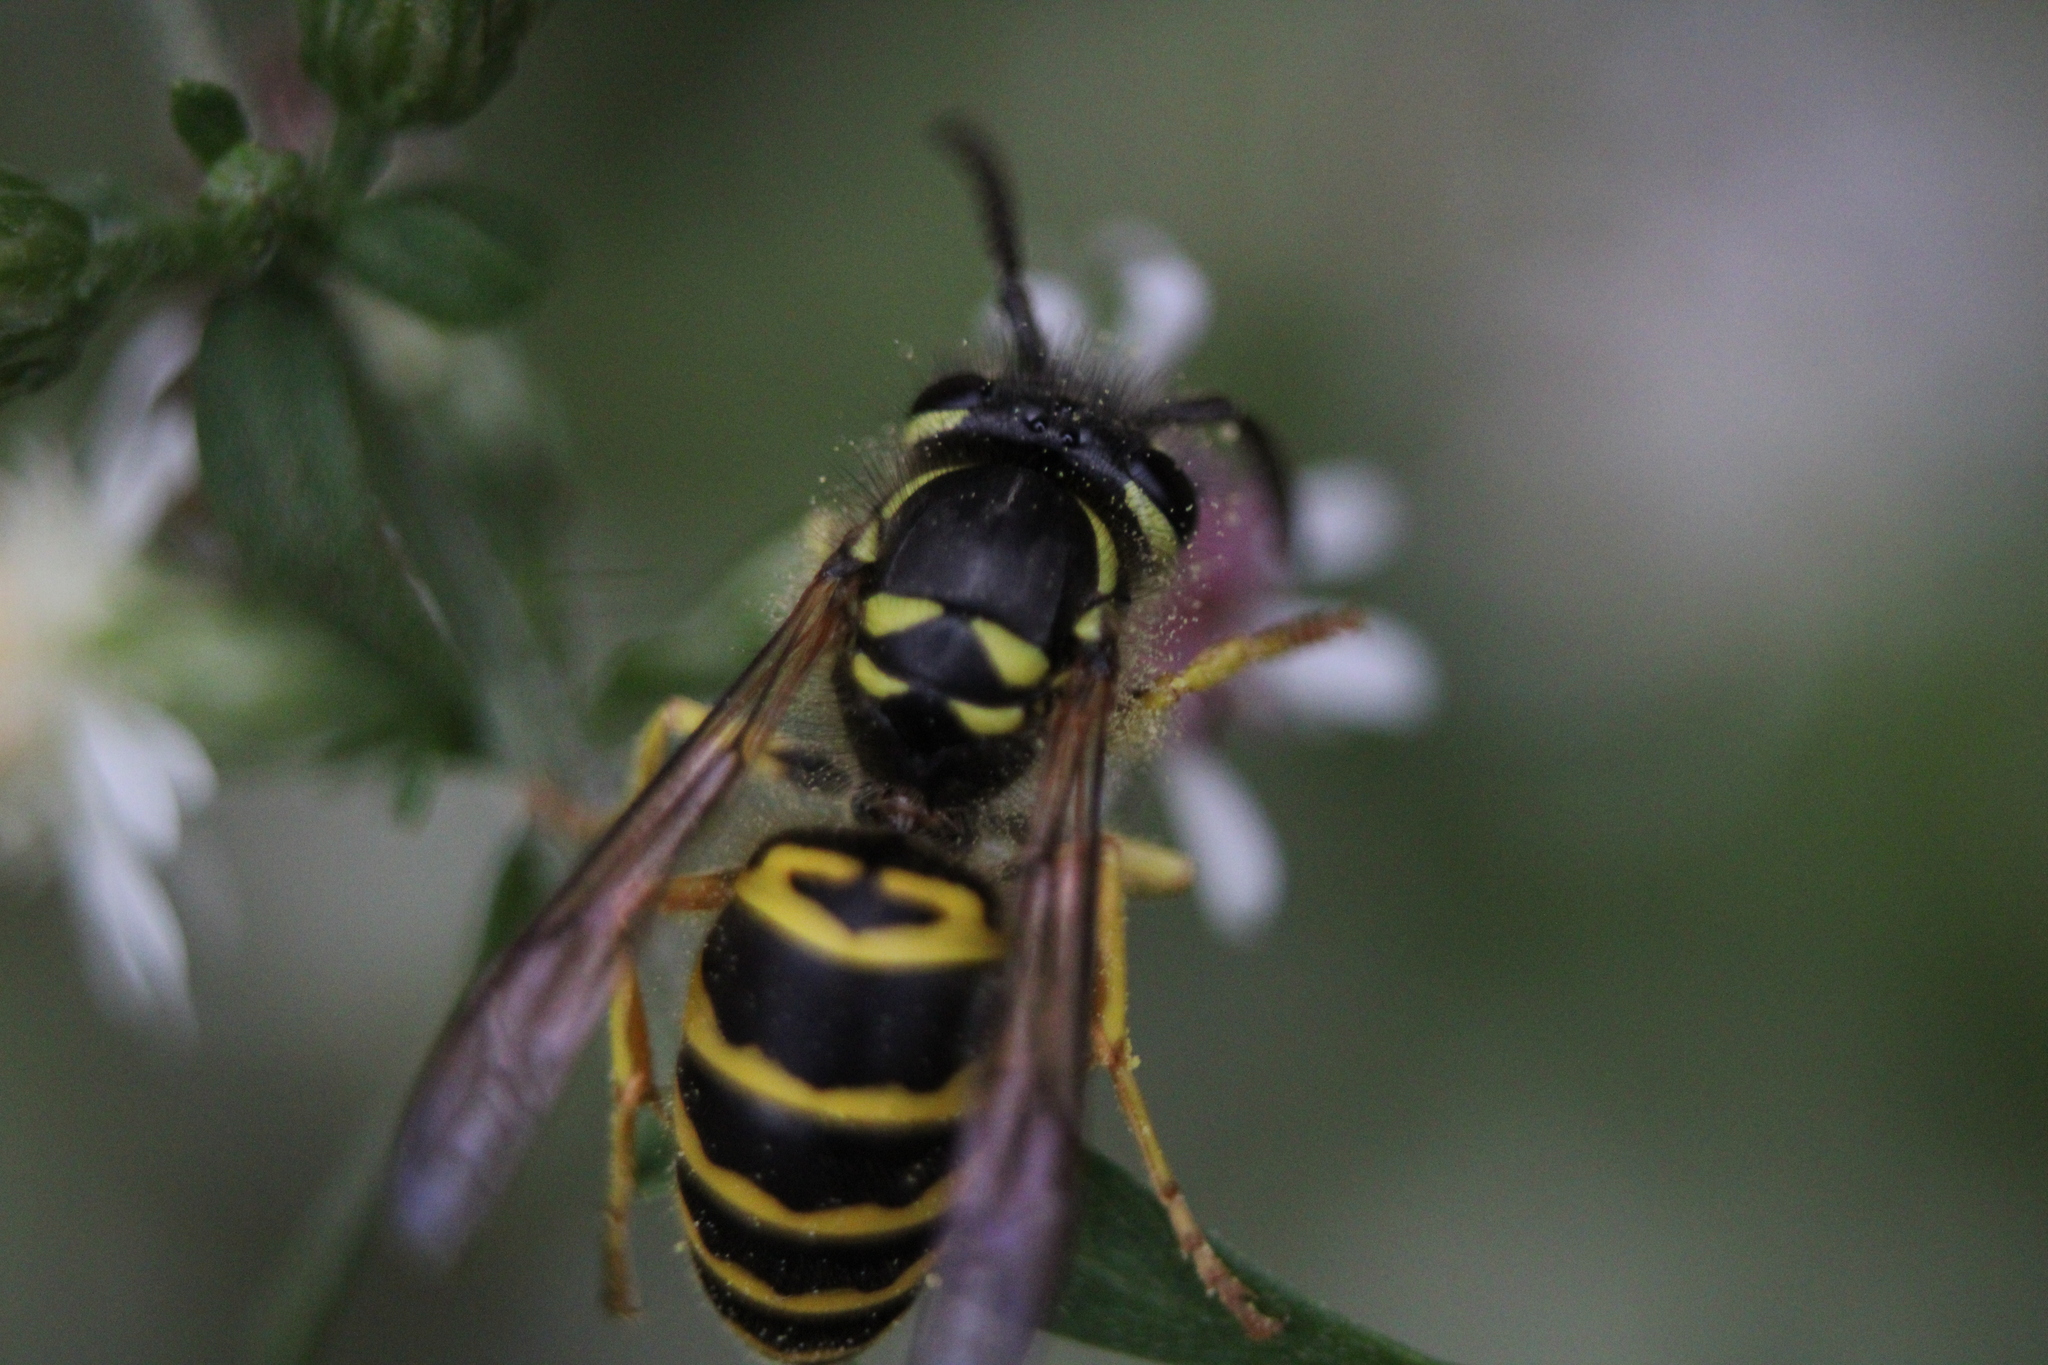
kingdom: Animalia
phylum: Arthropoda
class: Insecta
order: Hymenoptera
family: Vespidae
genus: Vespula
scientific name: Vespula maculifrons
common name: Eastern yellowjacket
